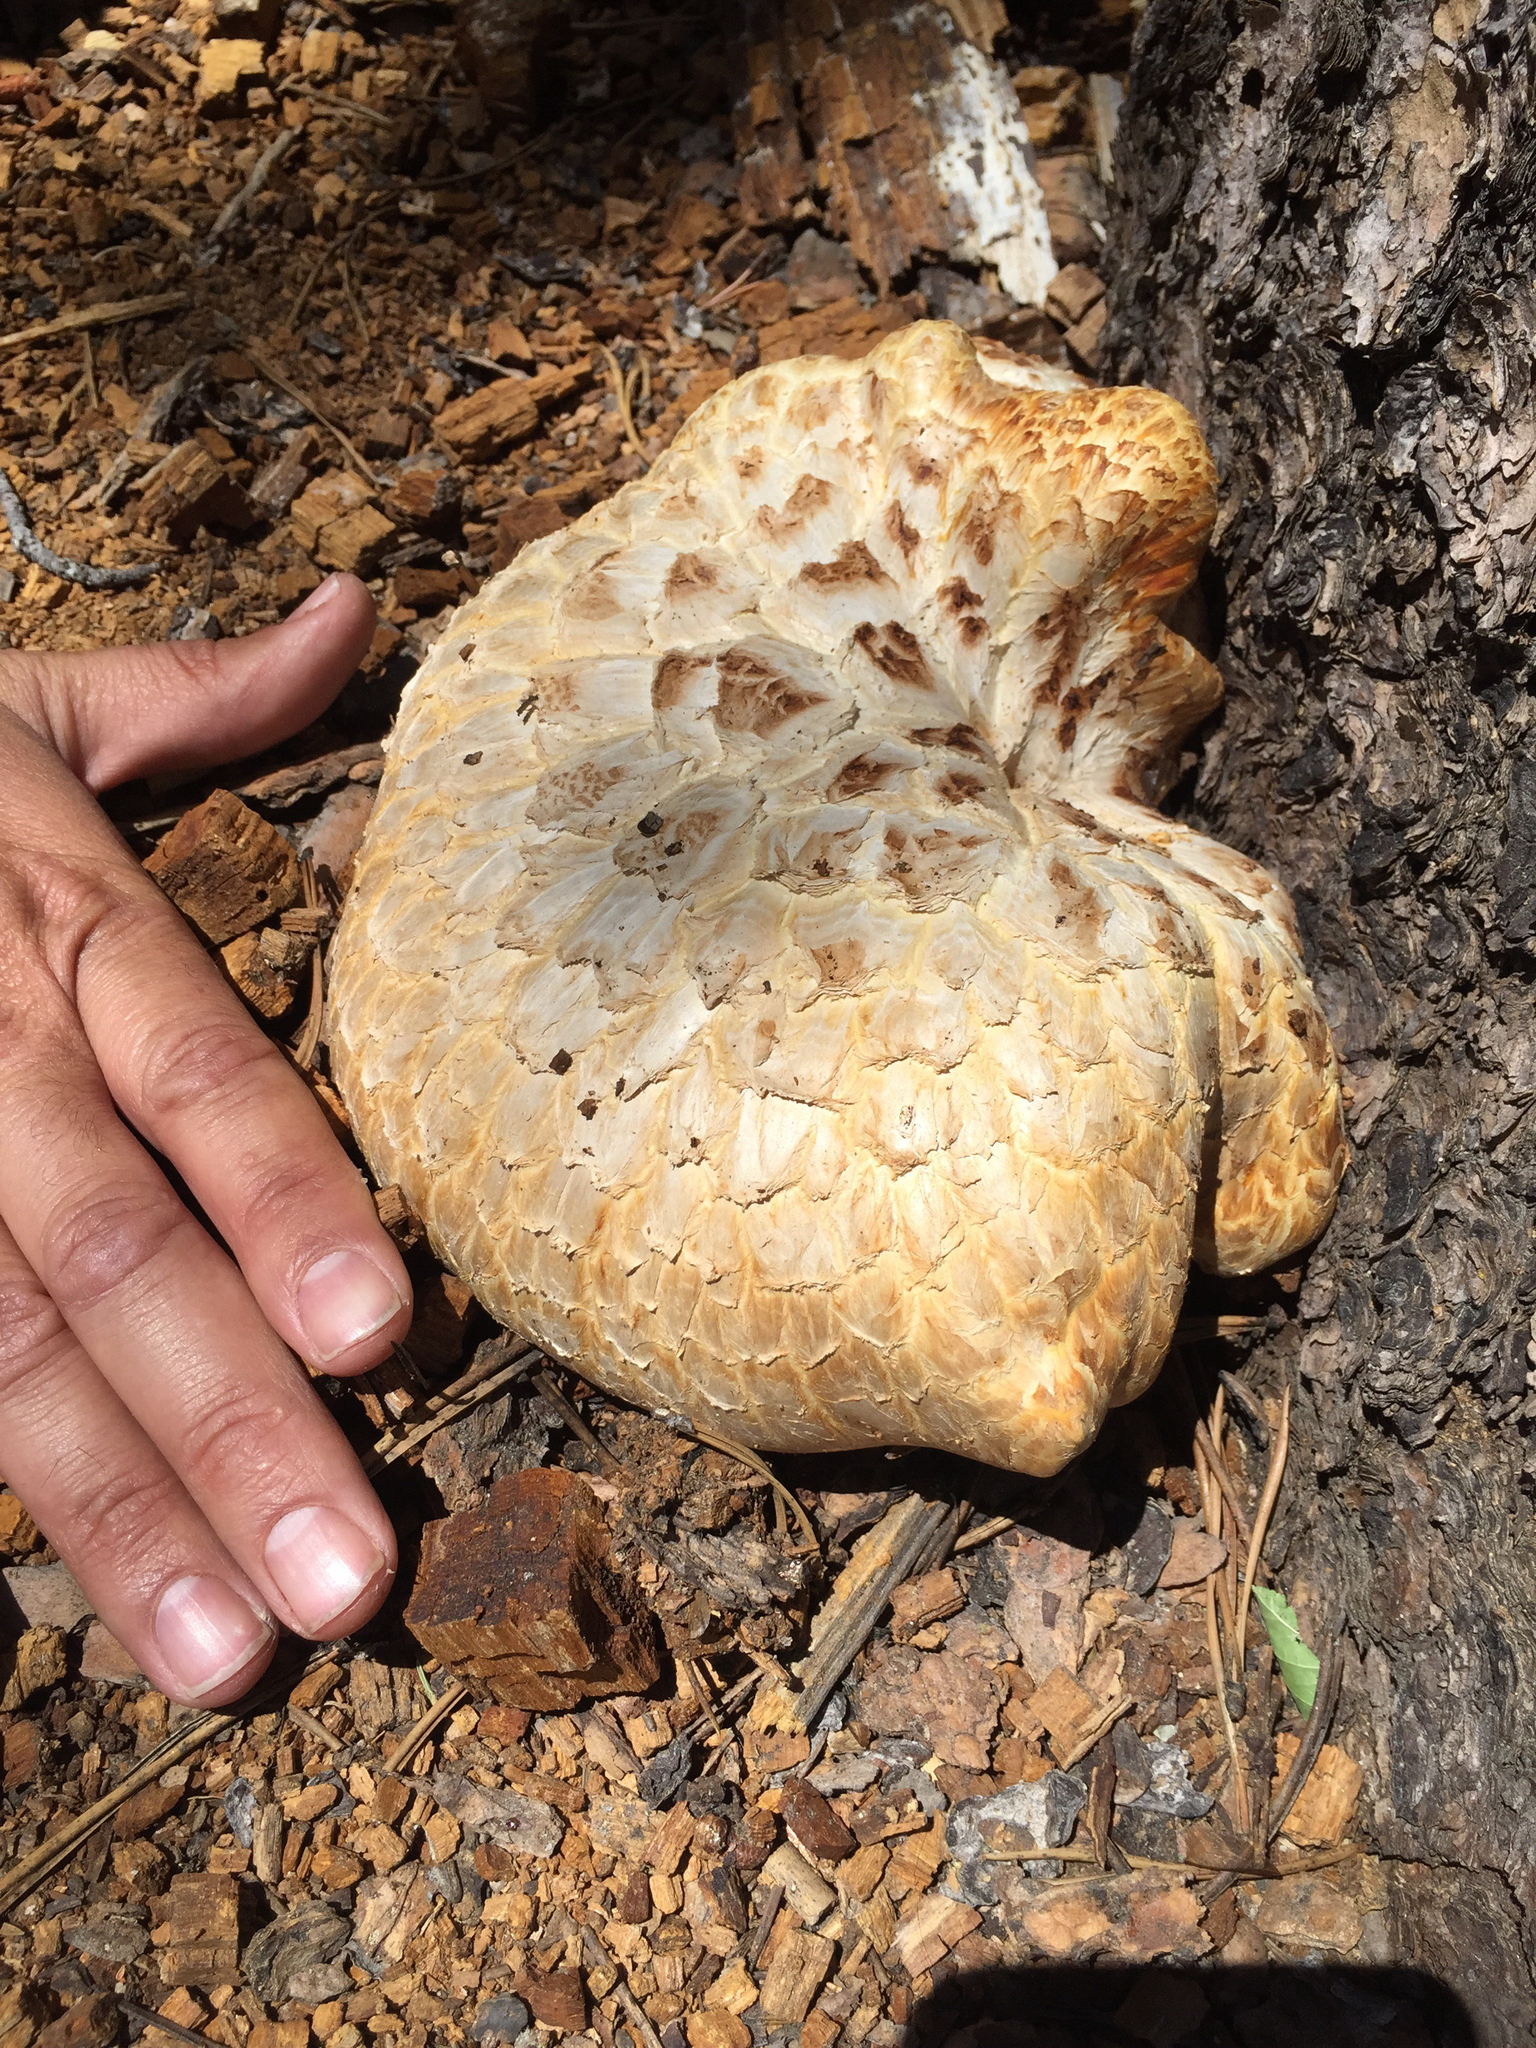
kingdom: Fungi
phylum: Basidiomycota
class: Agaricomycetes
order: Gloeophyllales
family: Gloeophyllaceae
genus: Neolentinus
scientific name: Neolentinus ponderosus
